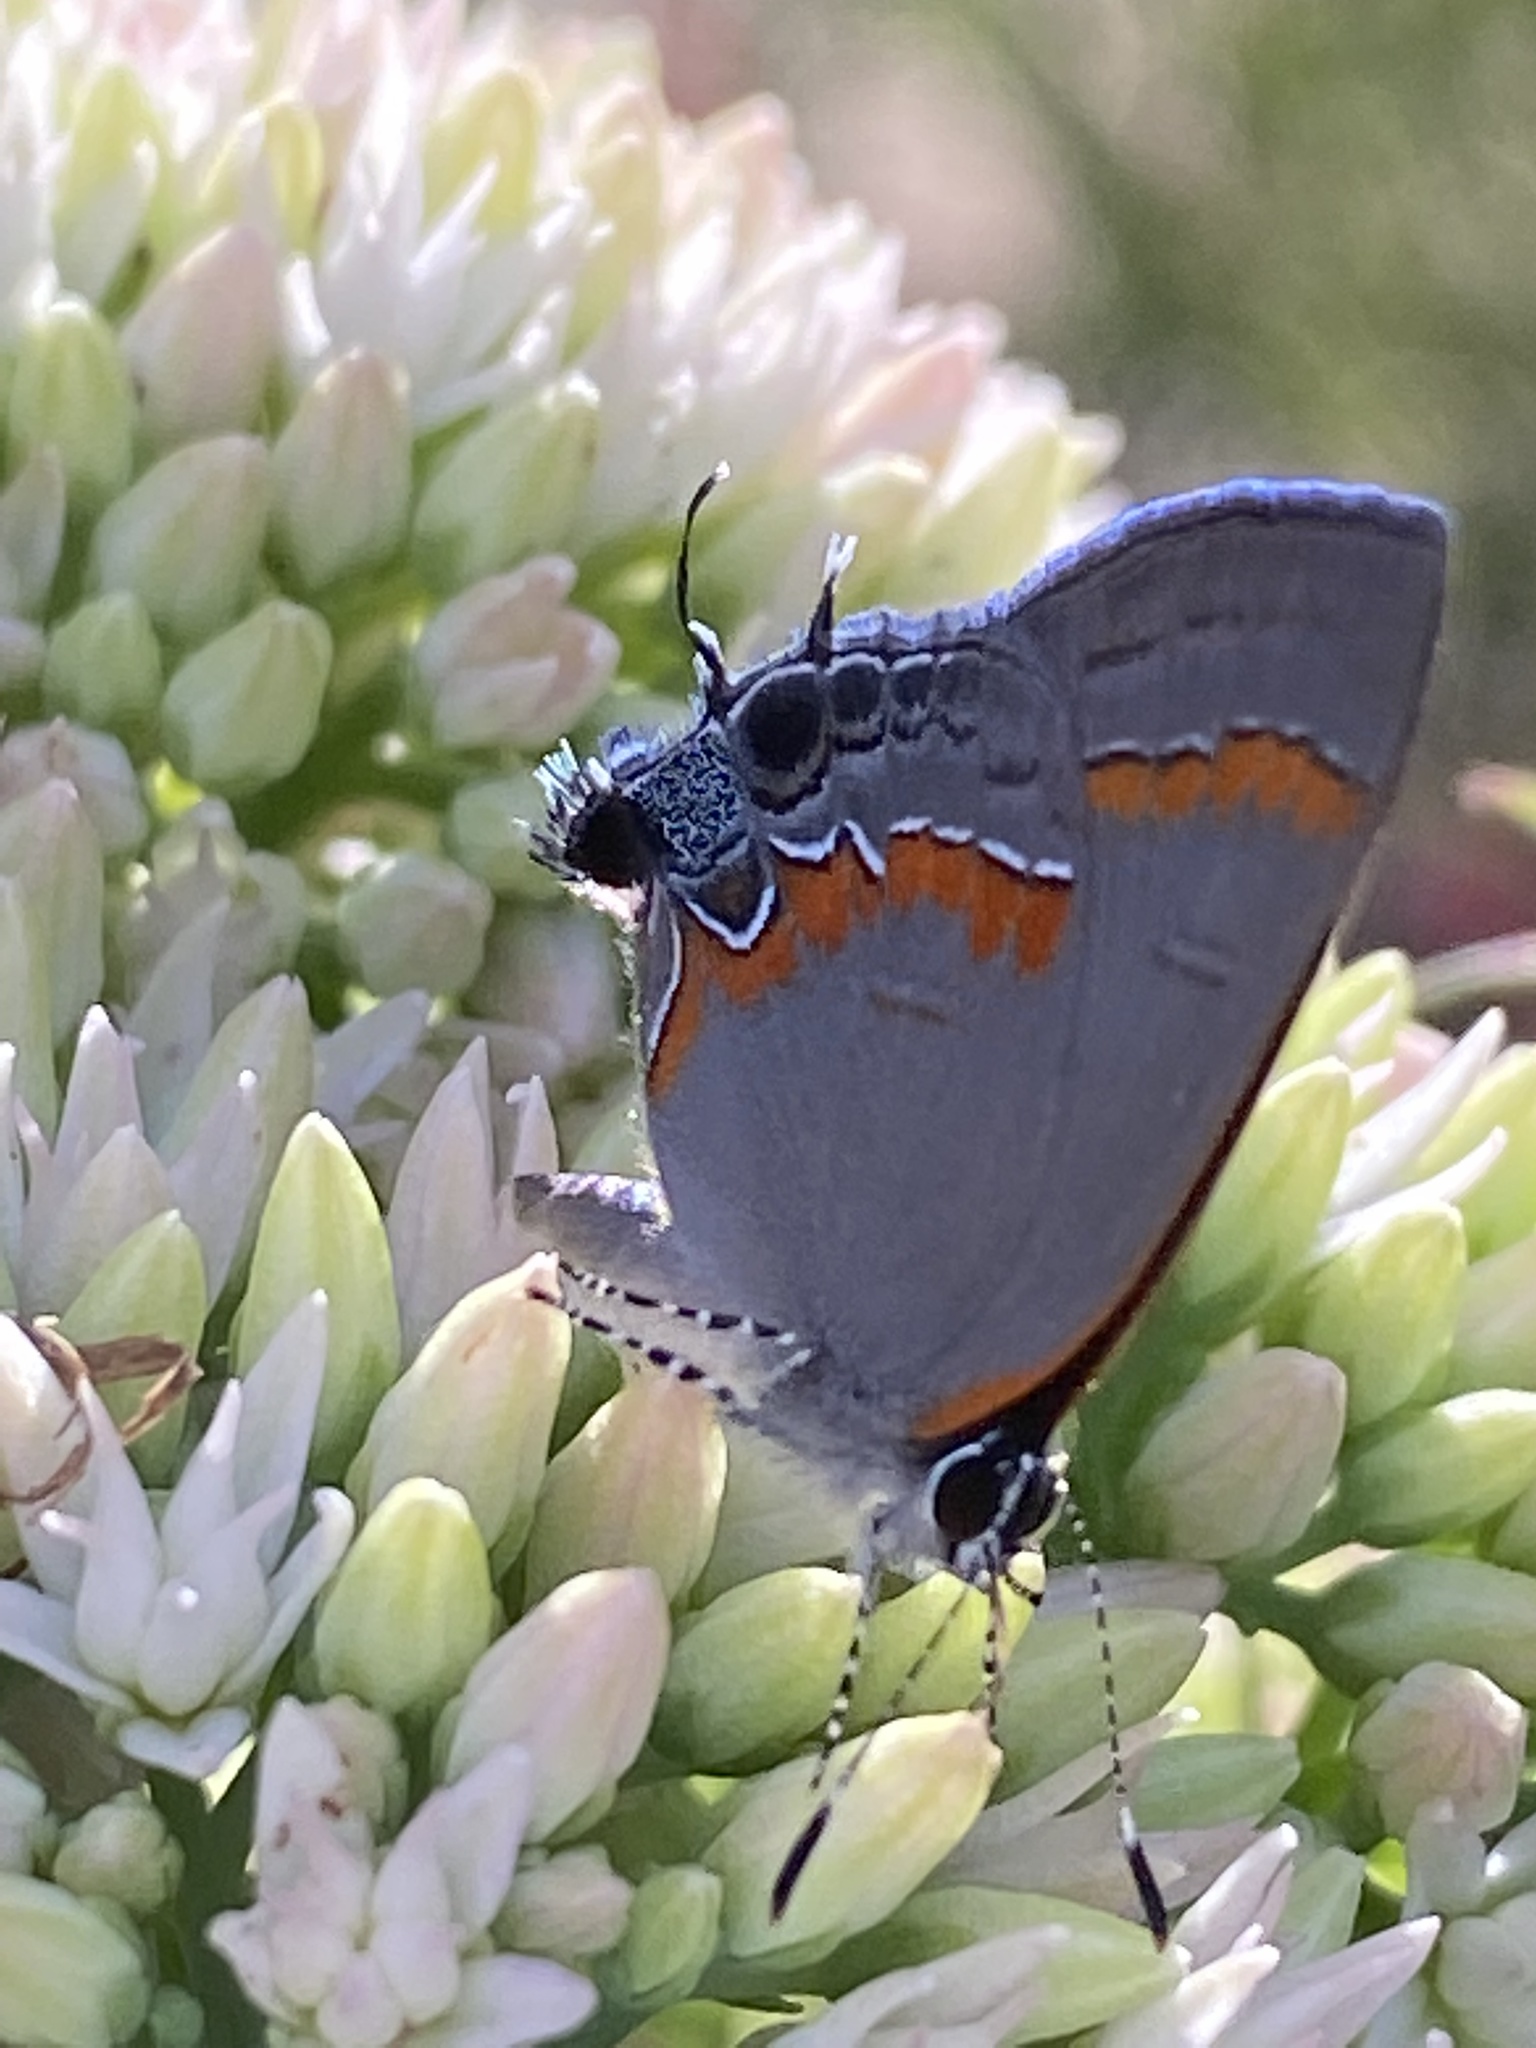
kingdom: Animalia
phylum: Arthropoda
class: Insecta
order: Lepidoptera
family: Lycaenidae
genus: Calycopis
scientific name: Calycopis cecrops
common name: Red-banded hairstreak
